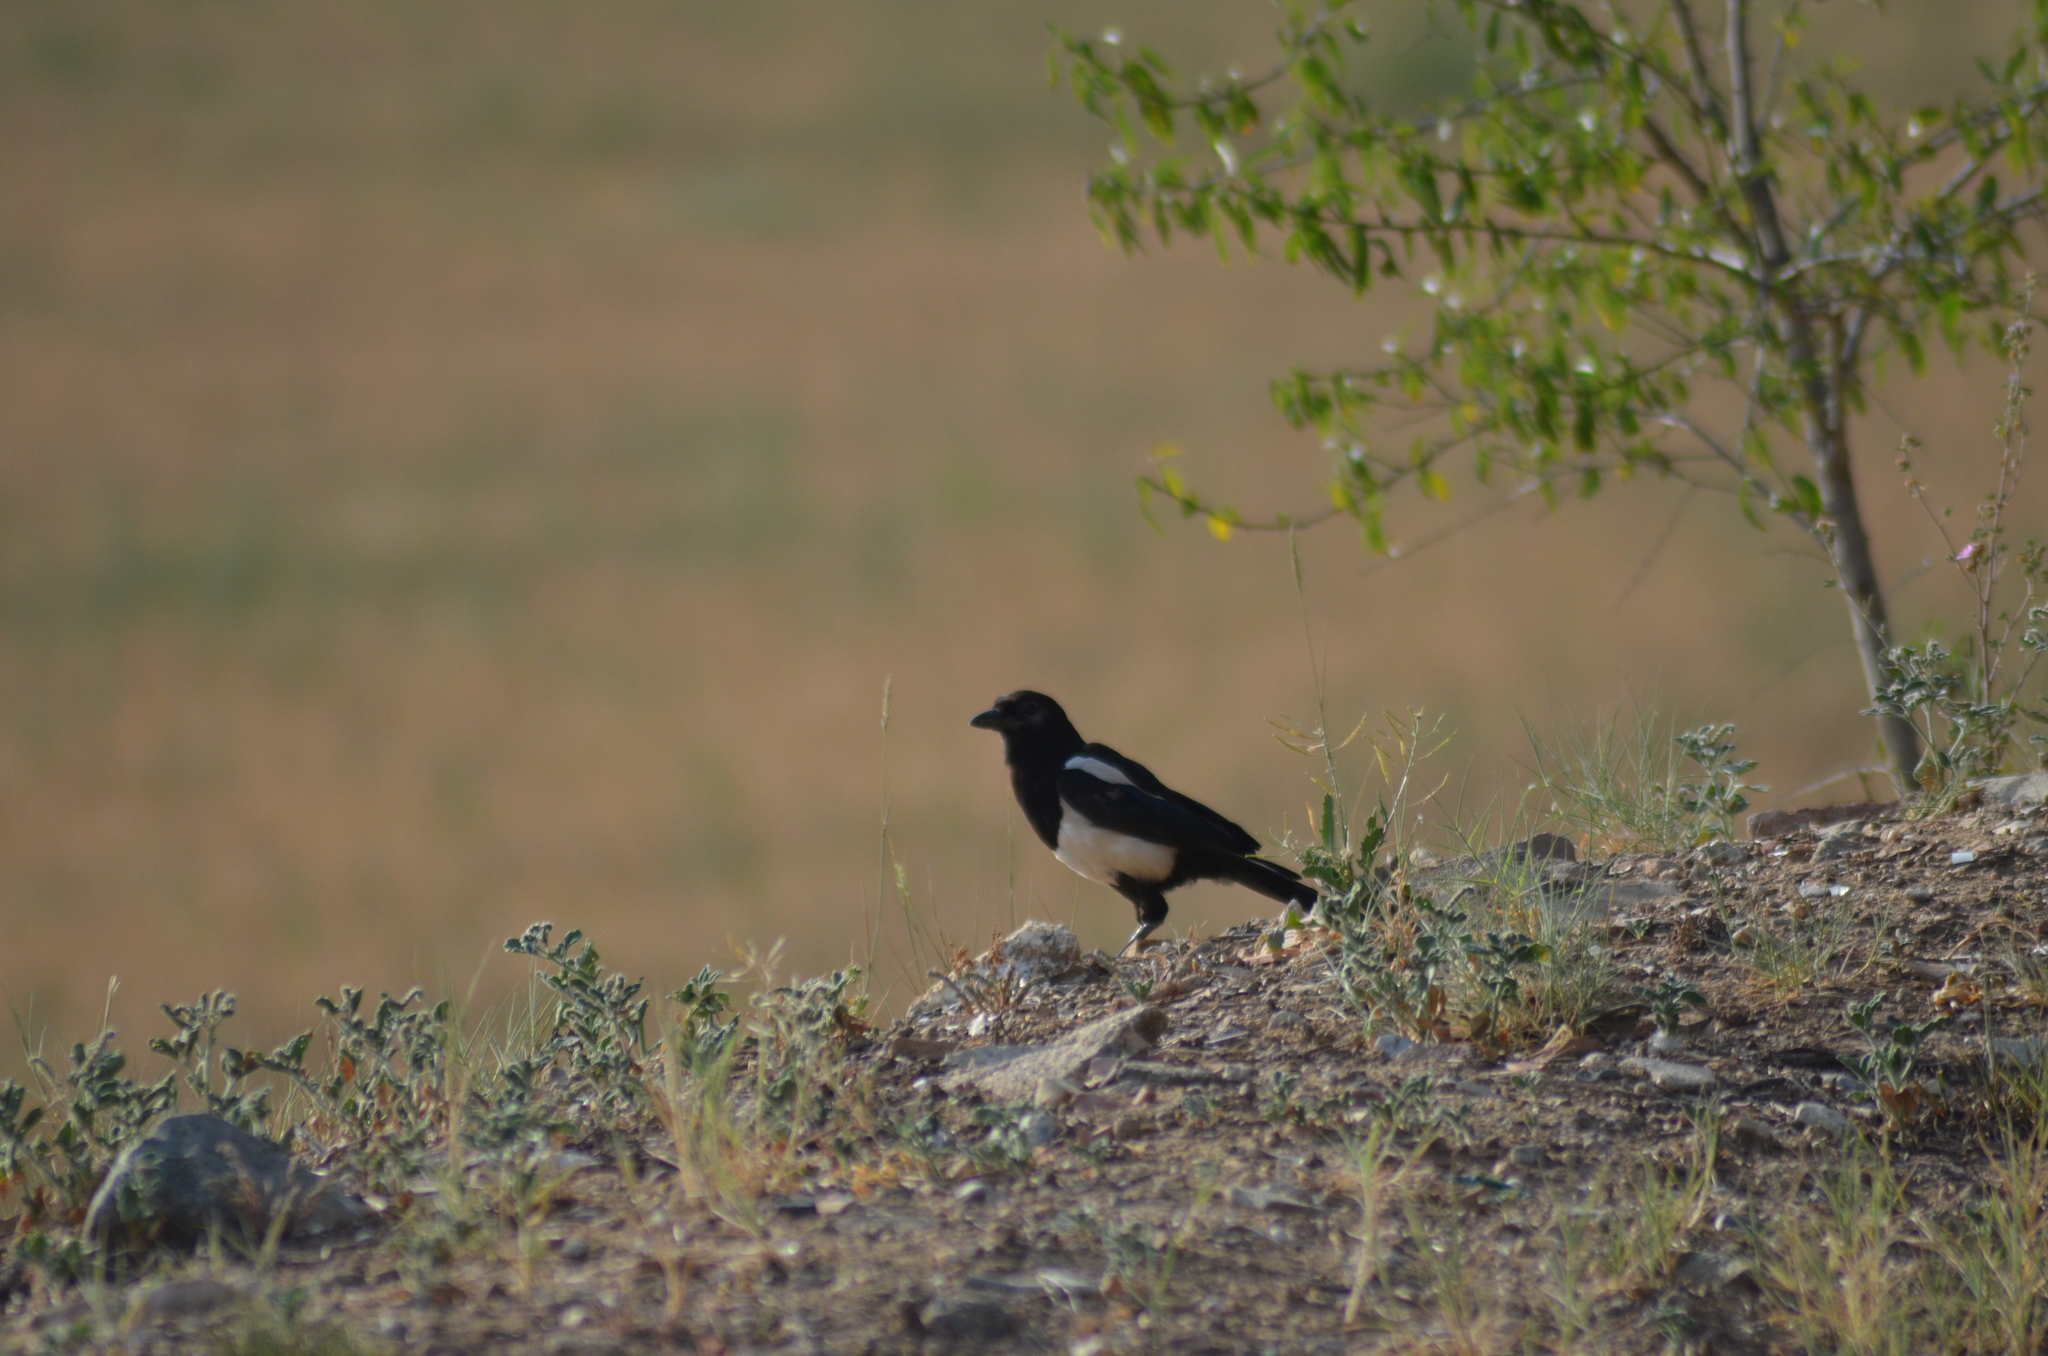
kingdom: Animalia
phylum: Chordata
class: Aves
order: Passeriformes
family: Corvidae
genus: Pica
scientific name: Pica pica
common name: Eurasian magpie
